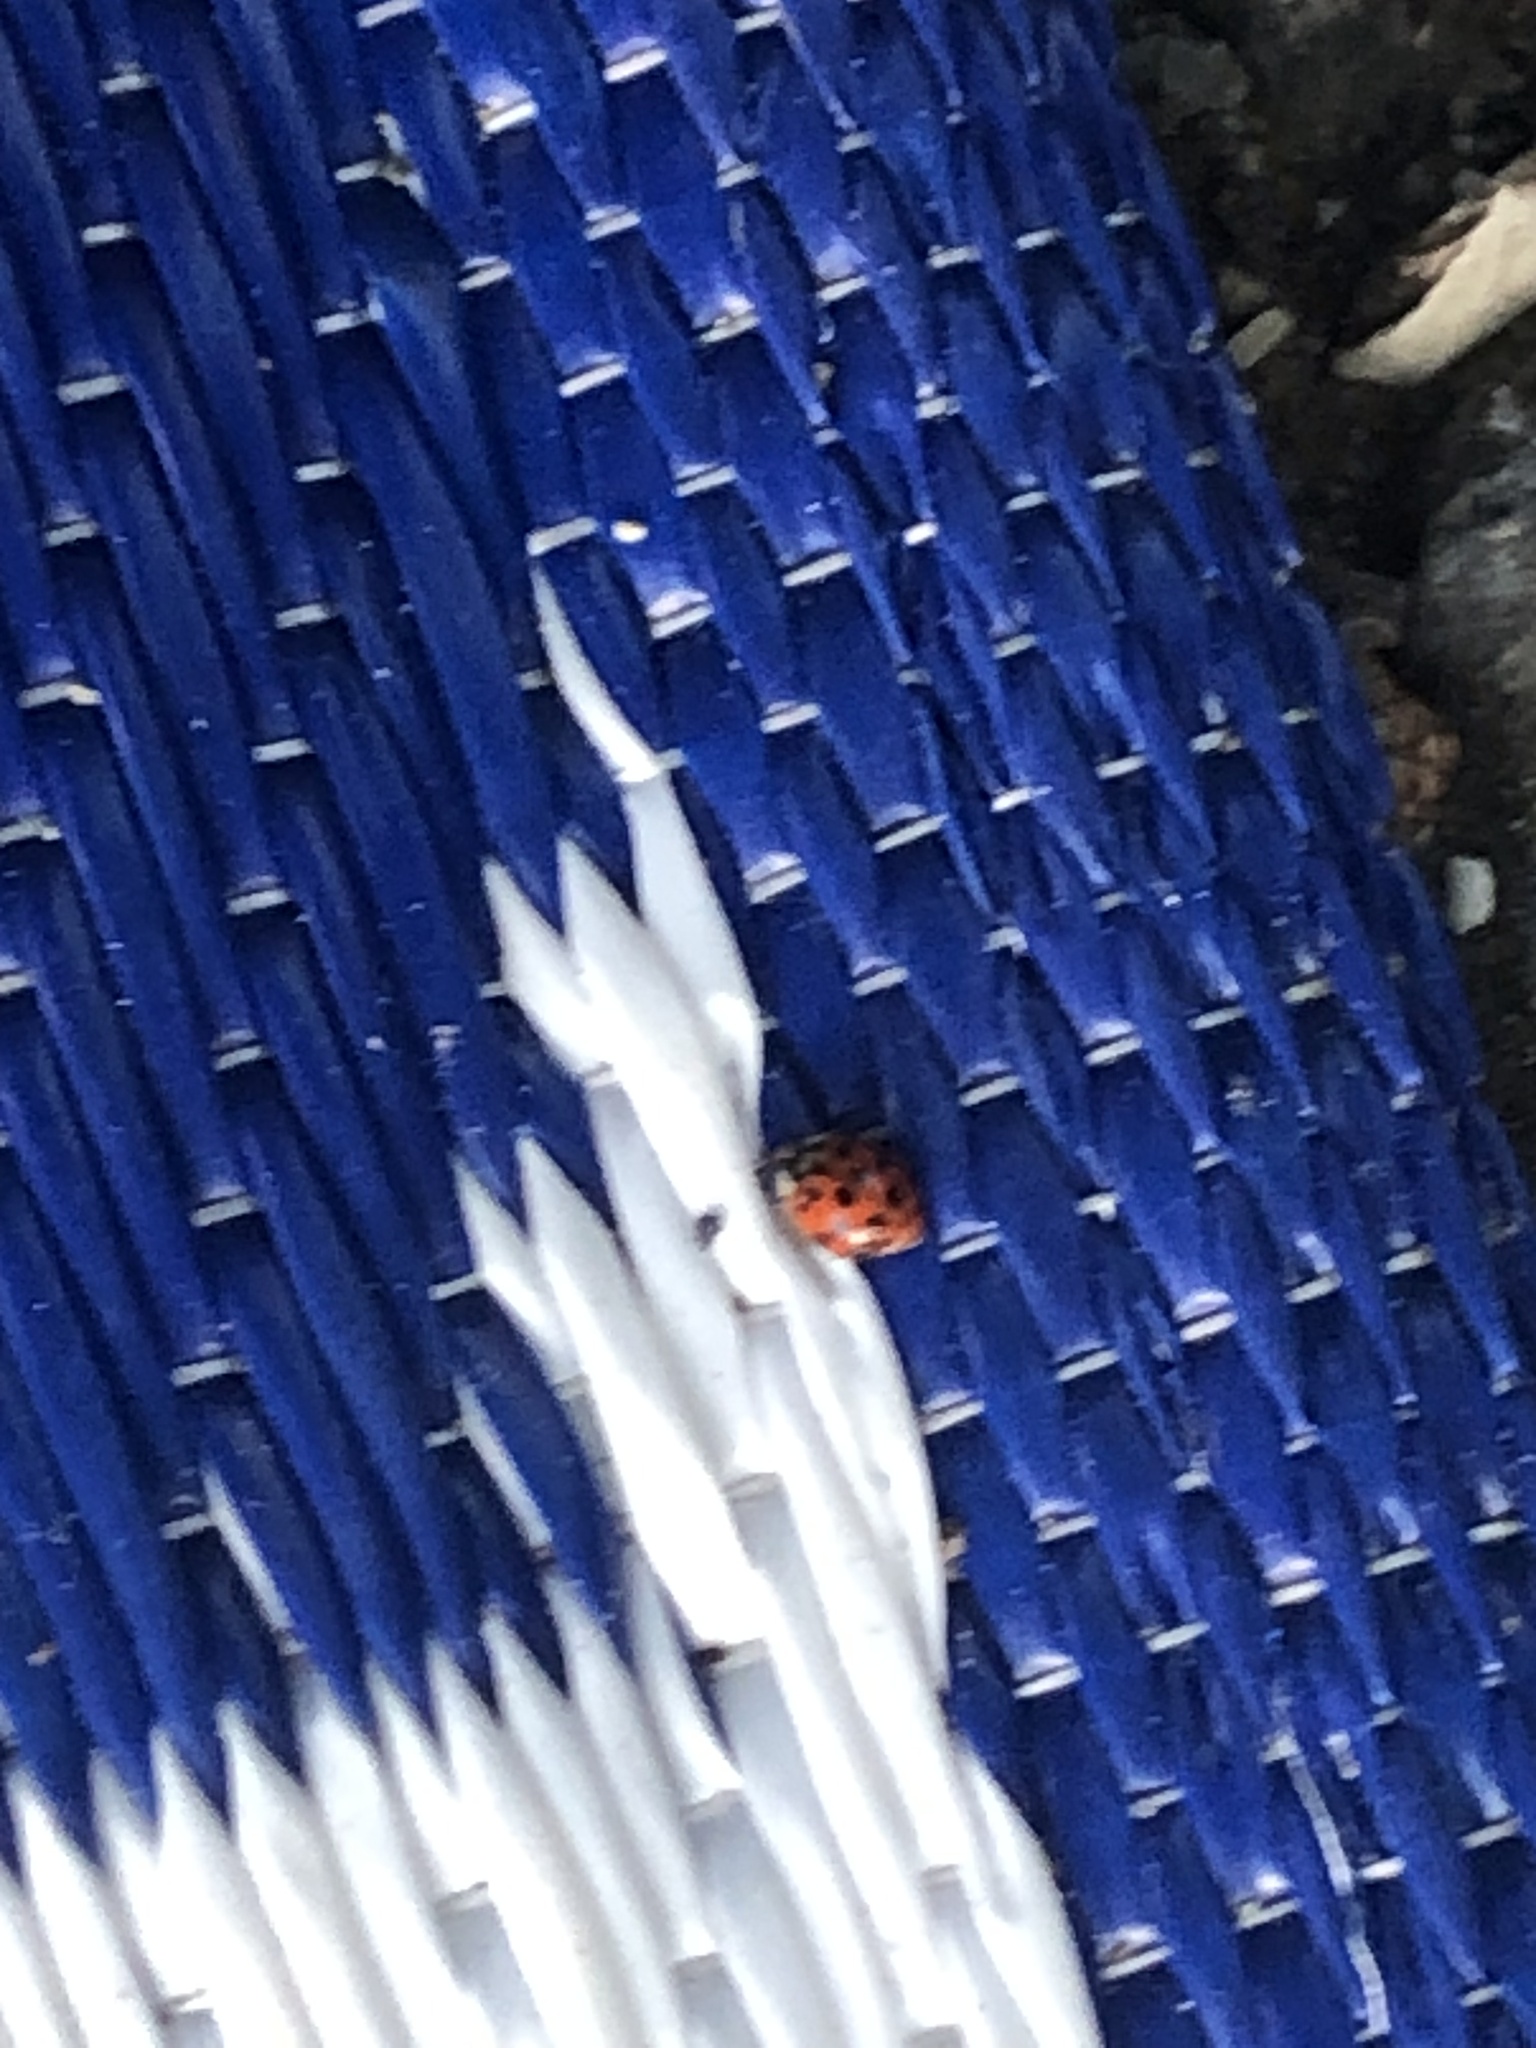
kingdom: Animalia
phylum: Arthropoda
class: Insecta
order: Coleoptera
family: Coccinellidae
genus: Harmonia
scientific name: Harmonia axyridis
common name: Harlequin ladybird
